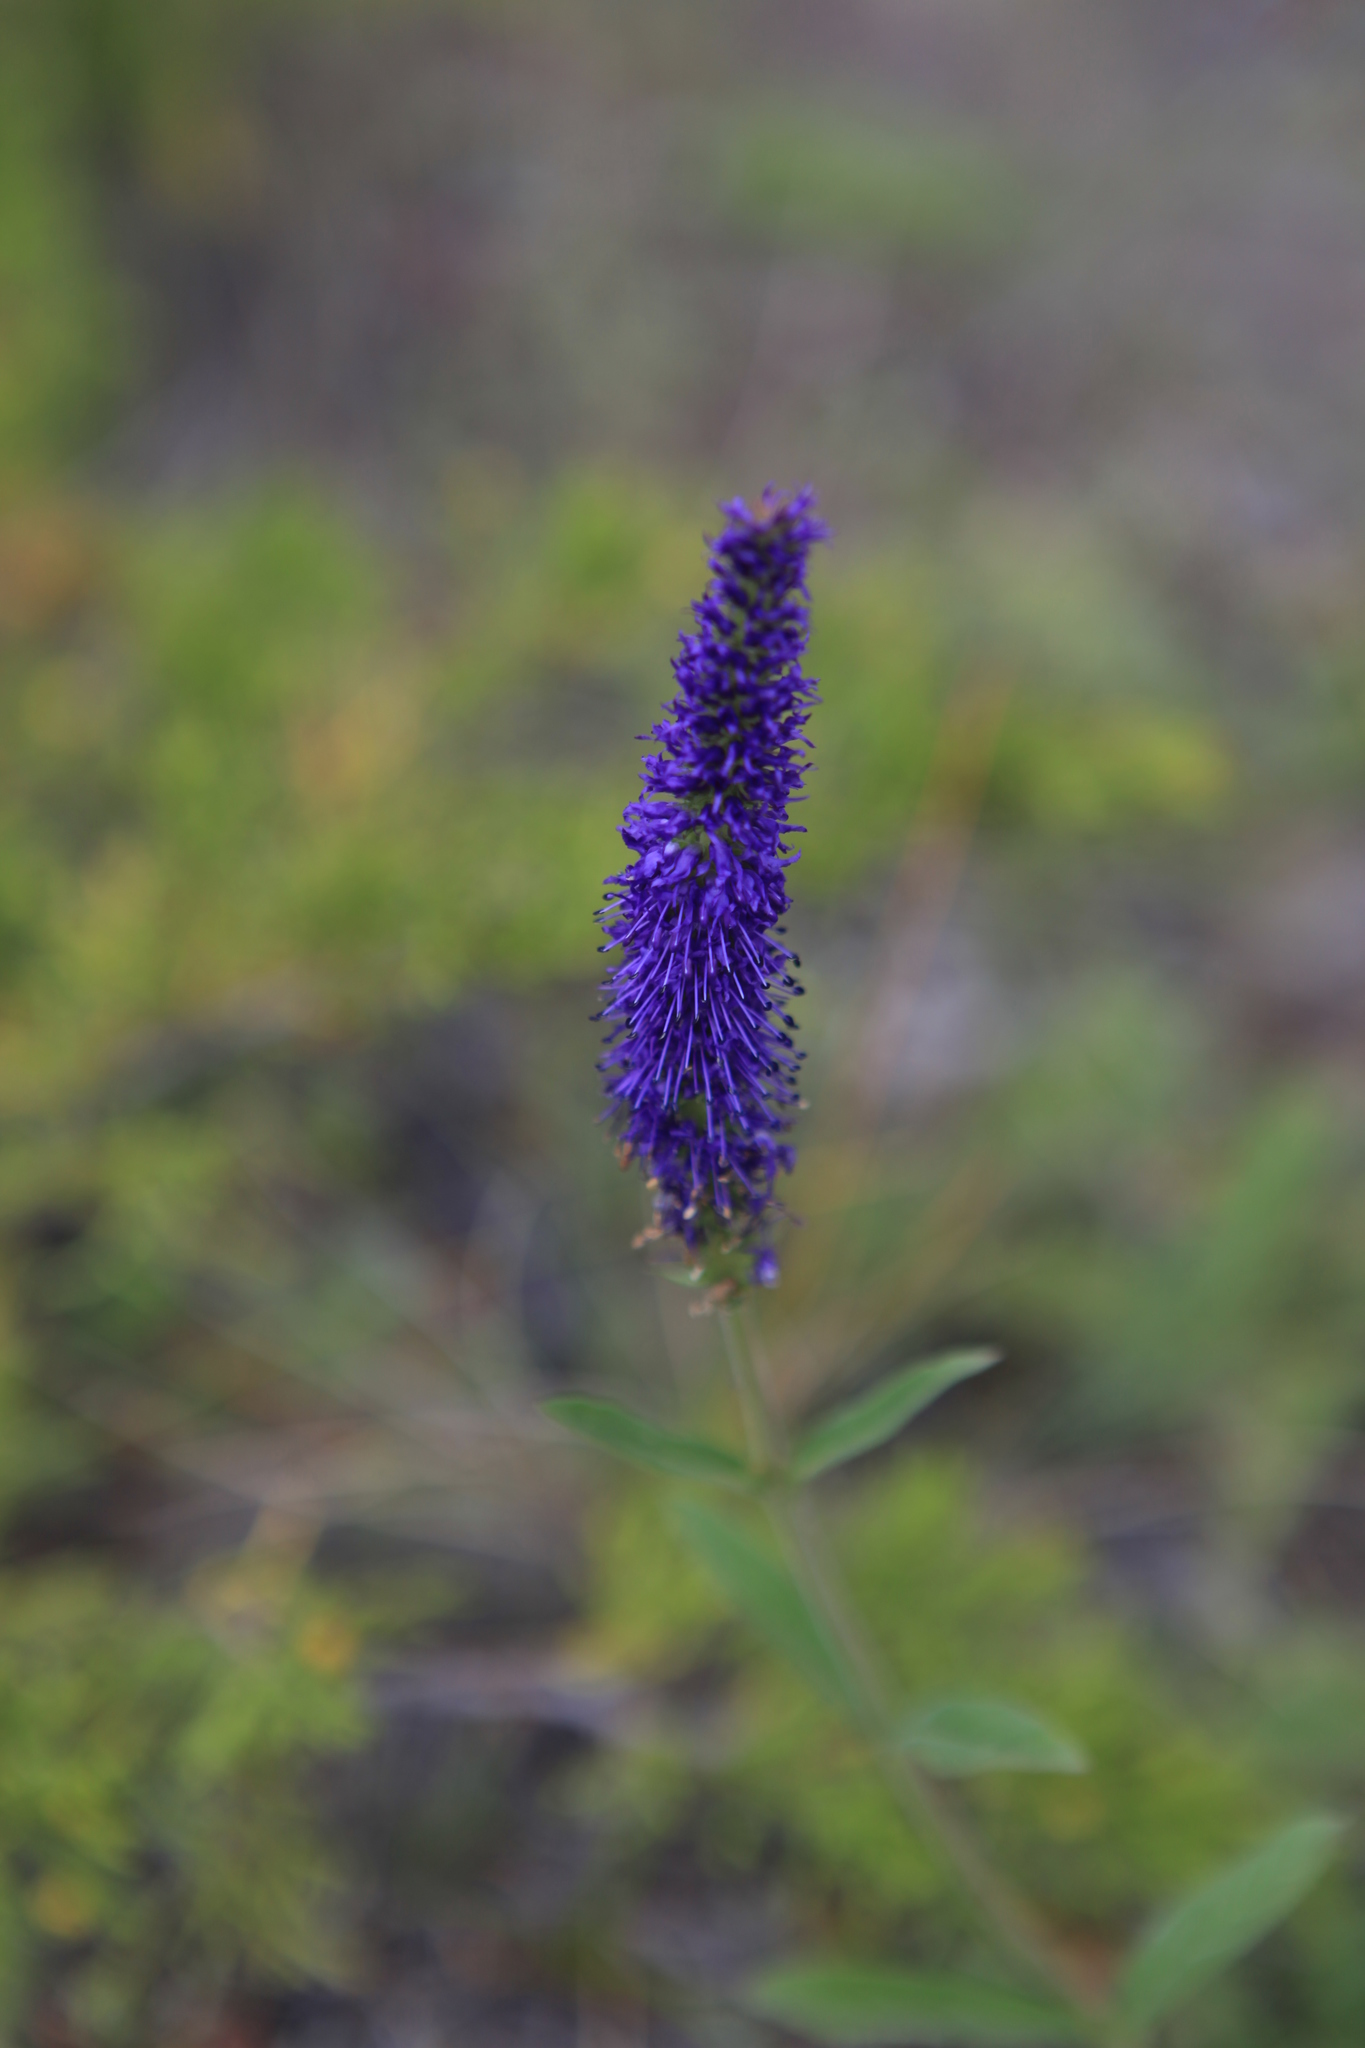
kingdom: Plantae
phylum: Tracheophyta
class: Magnoliopsida
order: Lamiales
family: Plantaginaceae
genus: Veronica
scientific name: Veronica porphyriana
